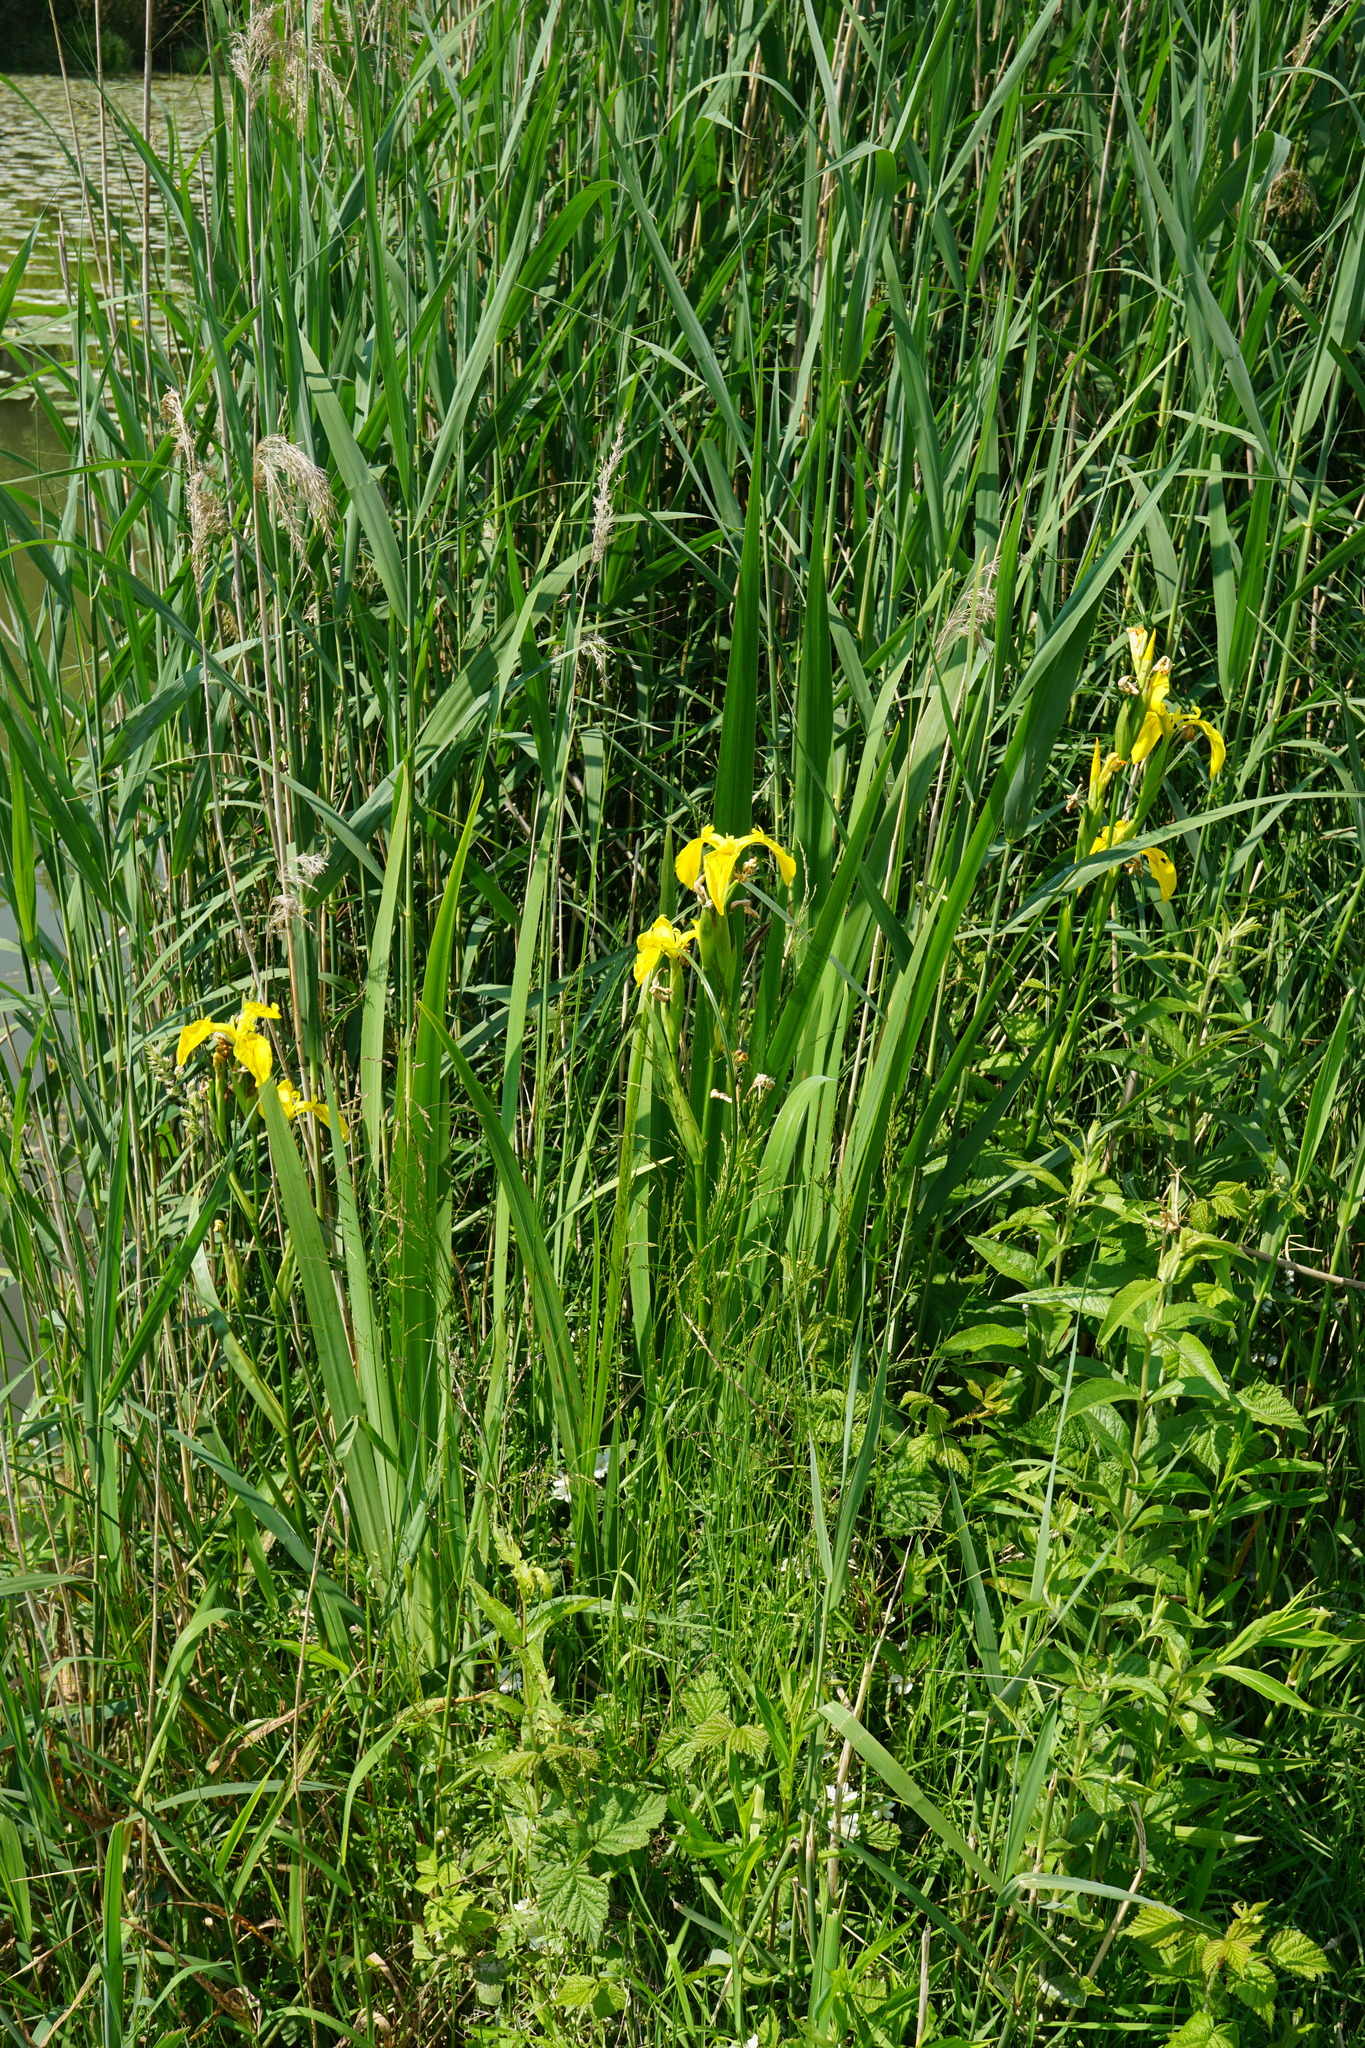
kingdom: Plantae
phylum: Tracheophyta
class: Liliopsida
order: Asparagales
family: Iridaceae
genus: Iris
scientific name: Iris pseudacorus
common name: Yellow flag
